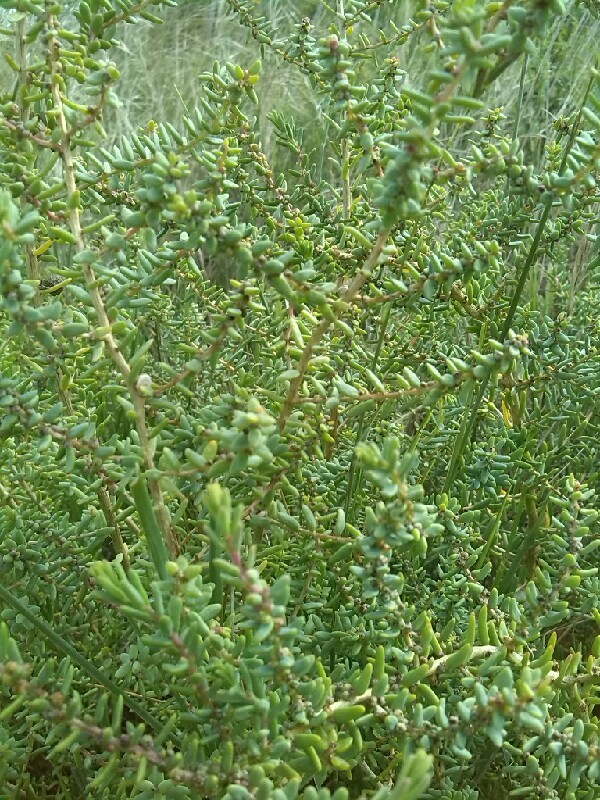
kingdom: Plantae
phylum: Tracheophyta
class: Magnoliopsida
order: Caryophyllales
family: Amaranthaceae
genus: Suaeda
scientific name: Suaeda vera
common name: Shrubby sea-blite
